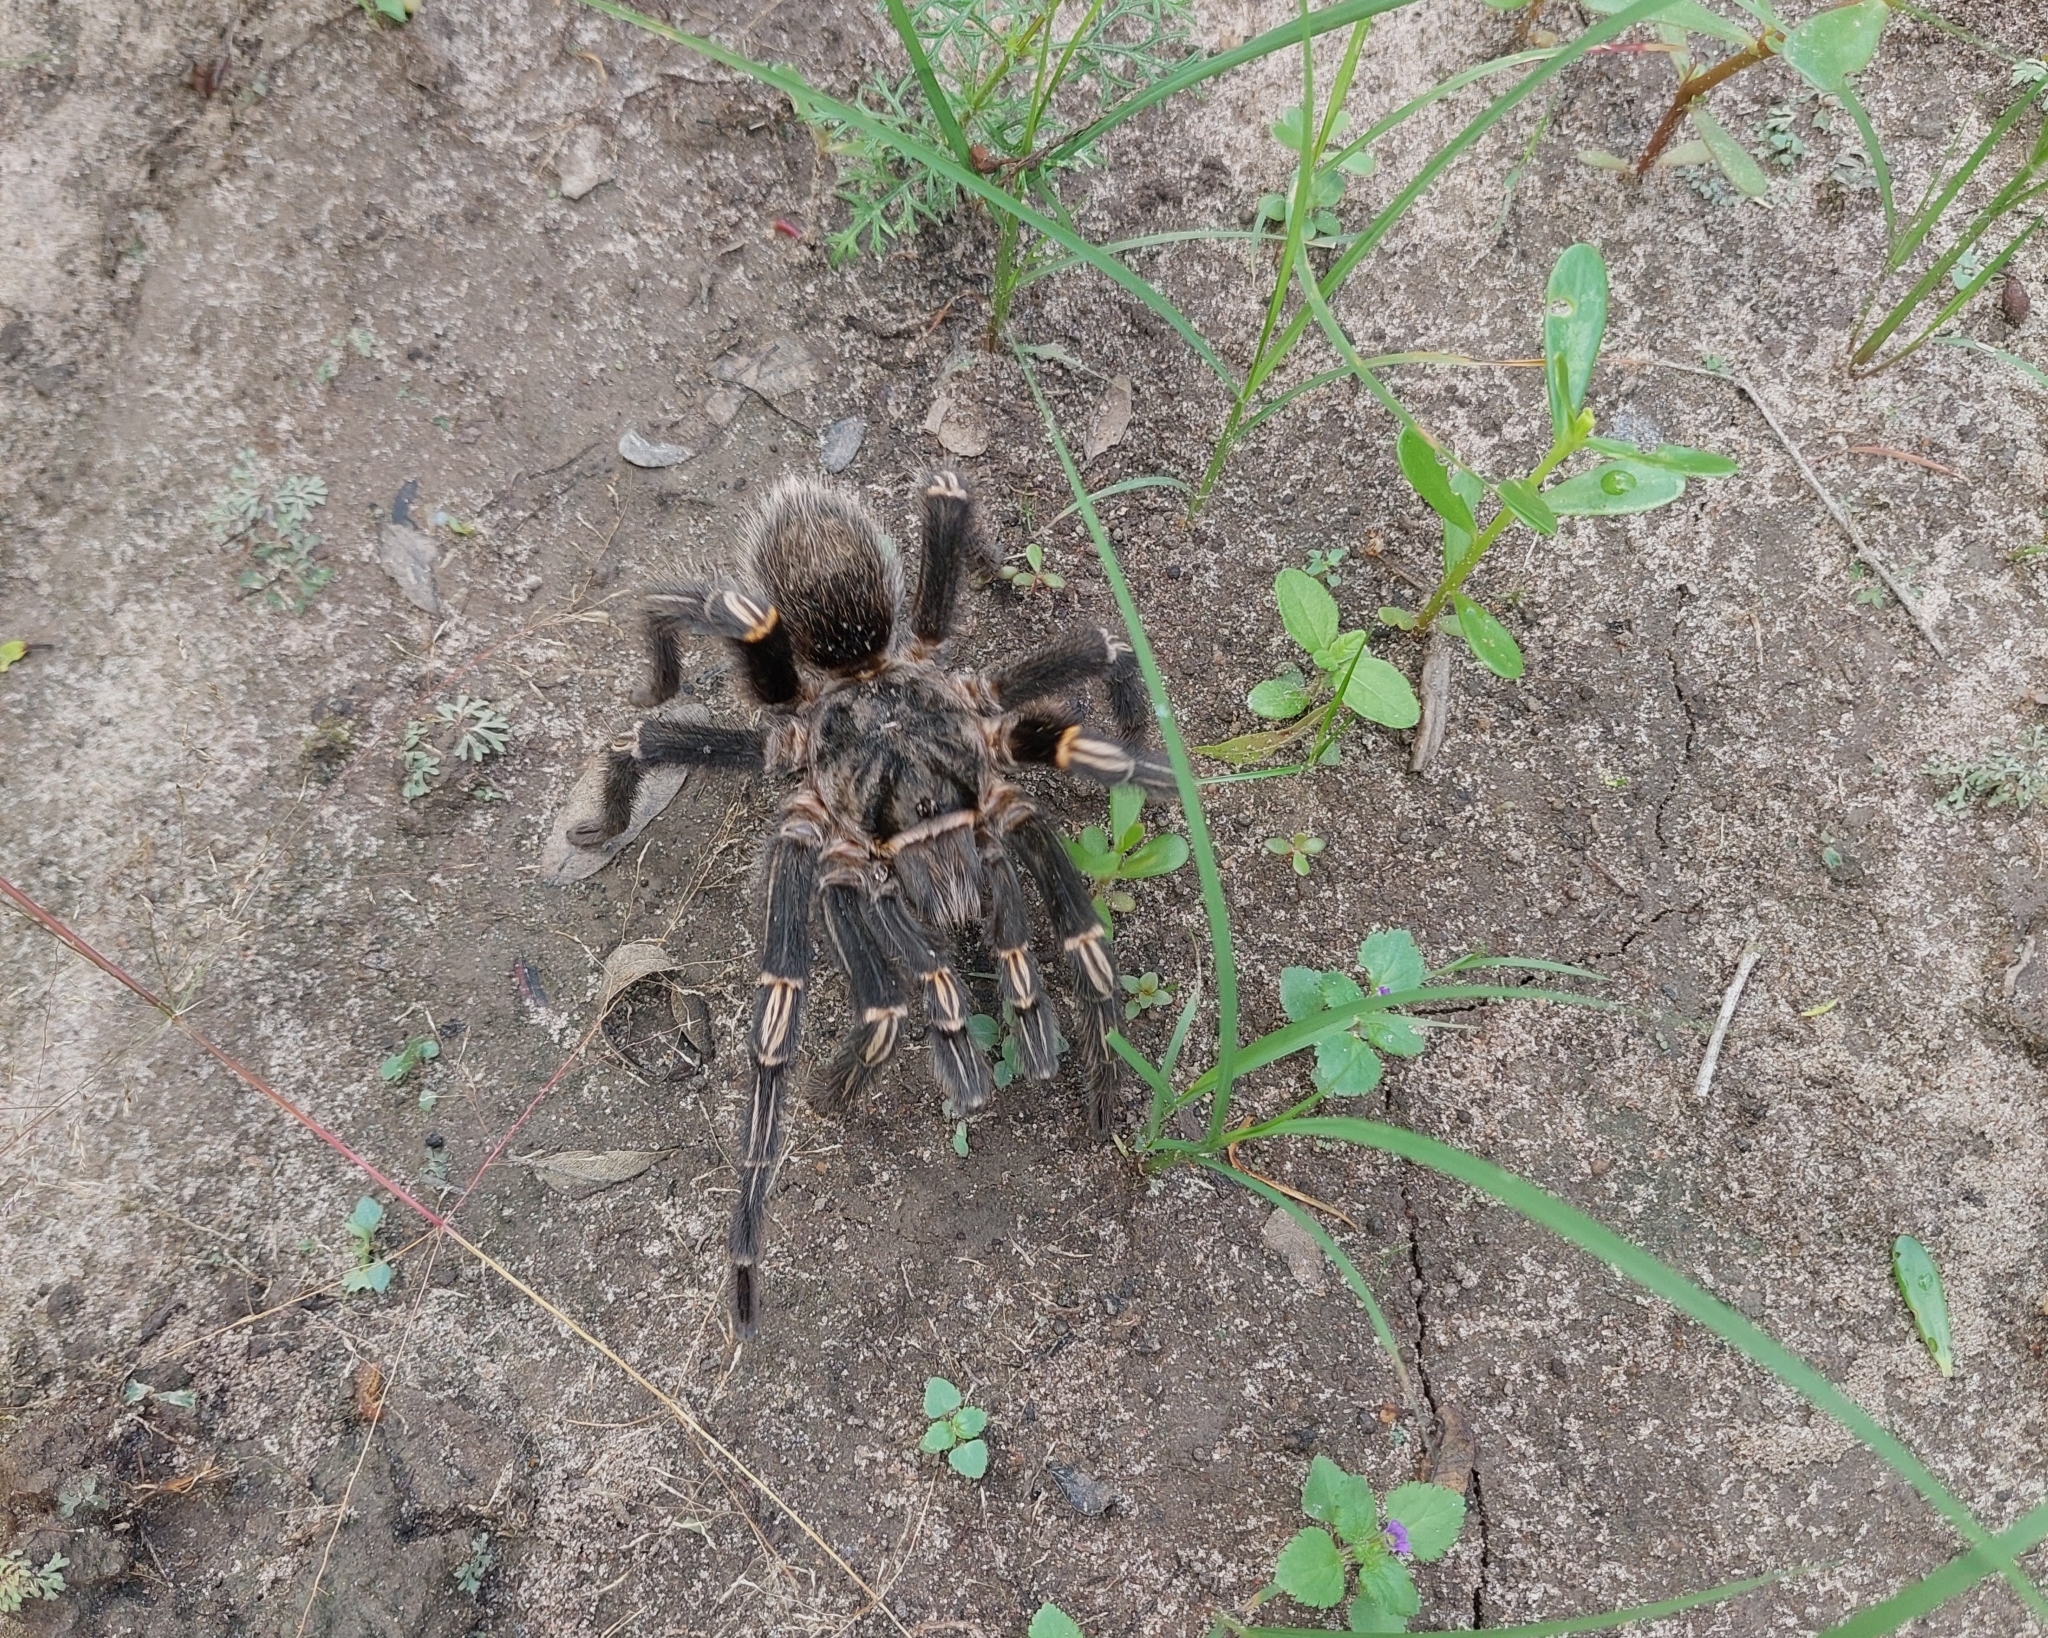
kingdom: Animalia
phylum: Arthropoda
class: Arachnida
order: Araneae
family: Theraphosidae
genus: Grammostola
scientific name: Grammostola pulchripes
